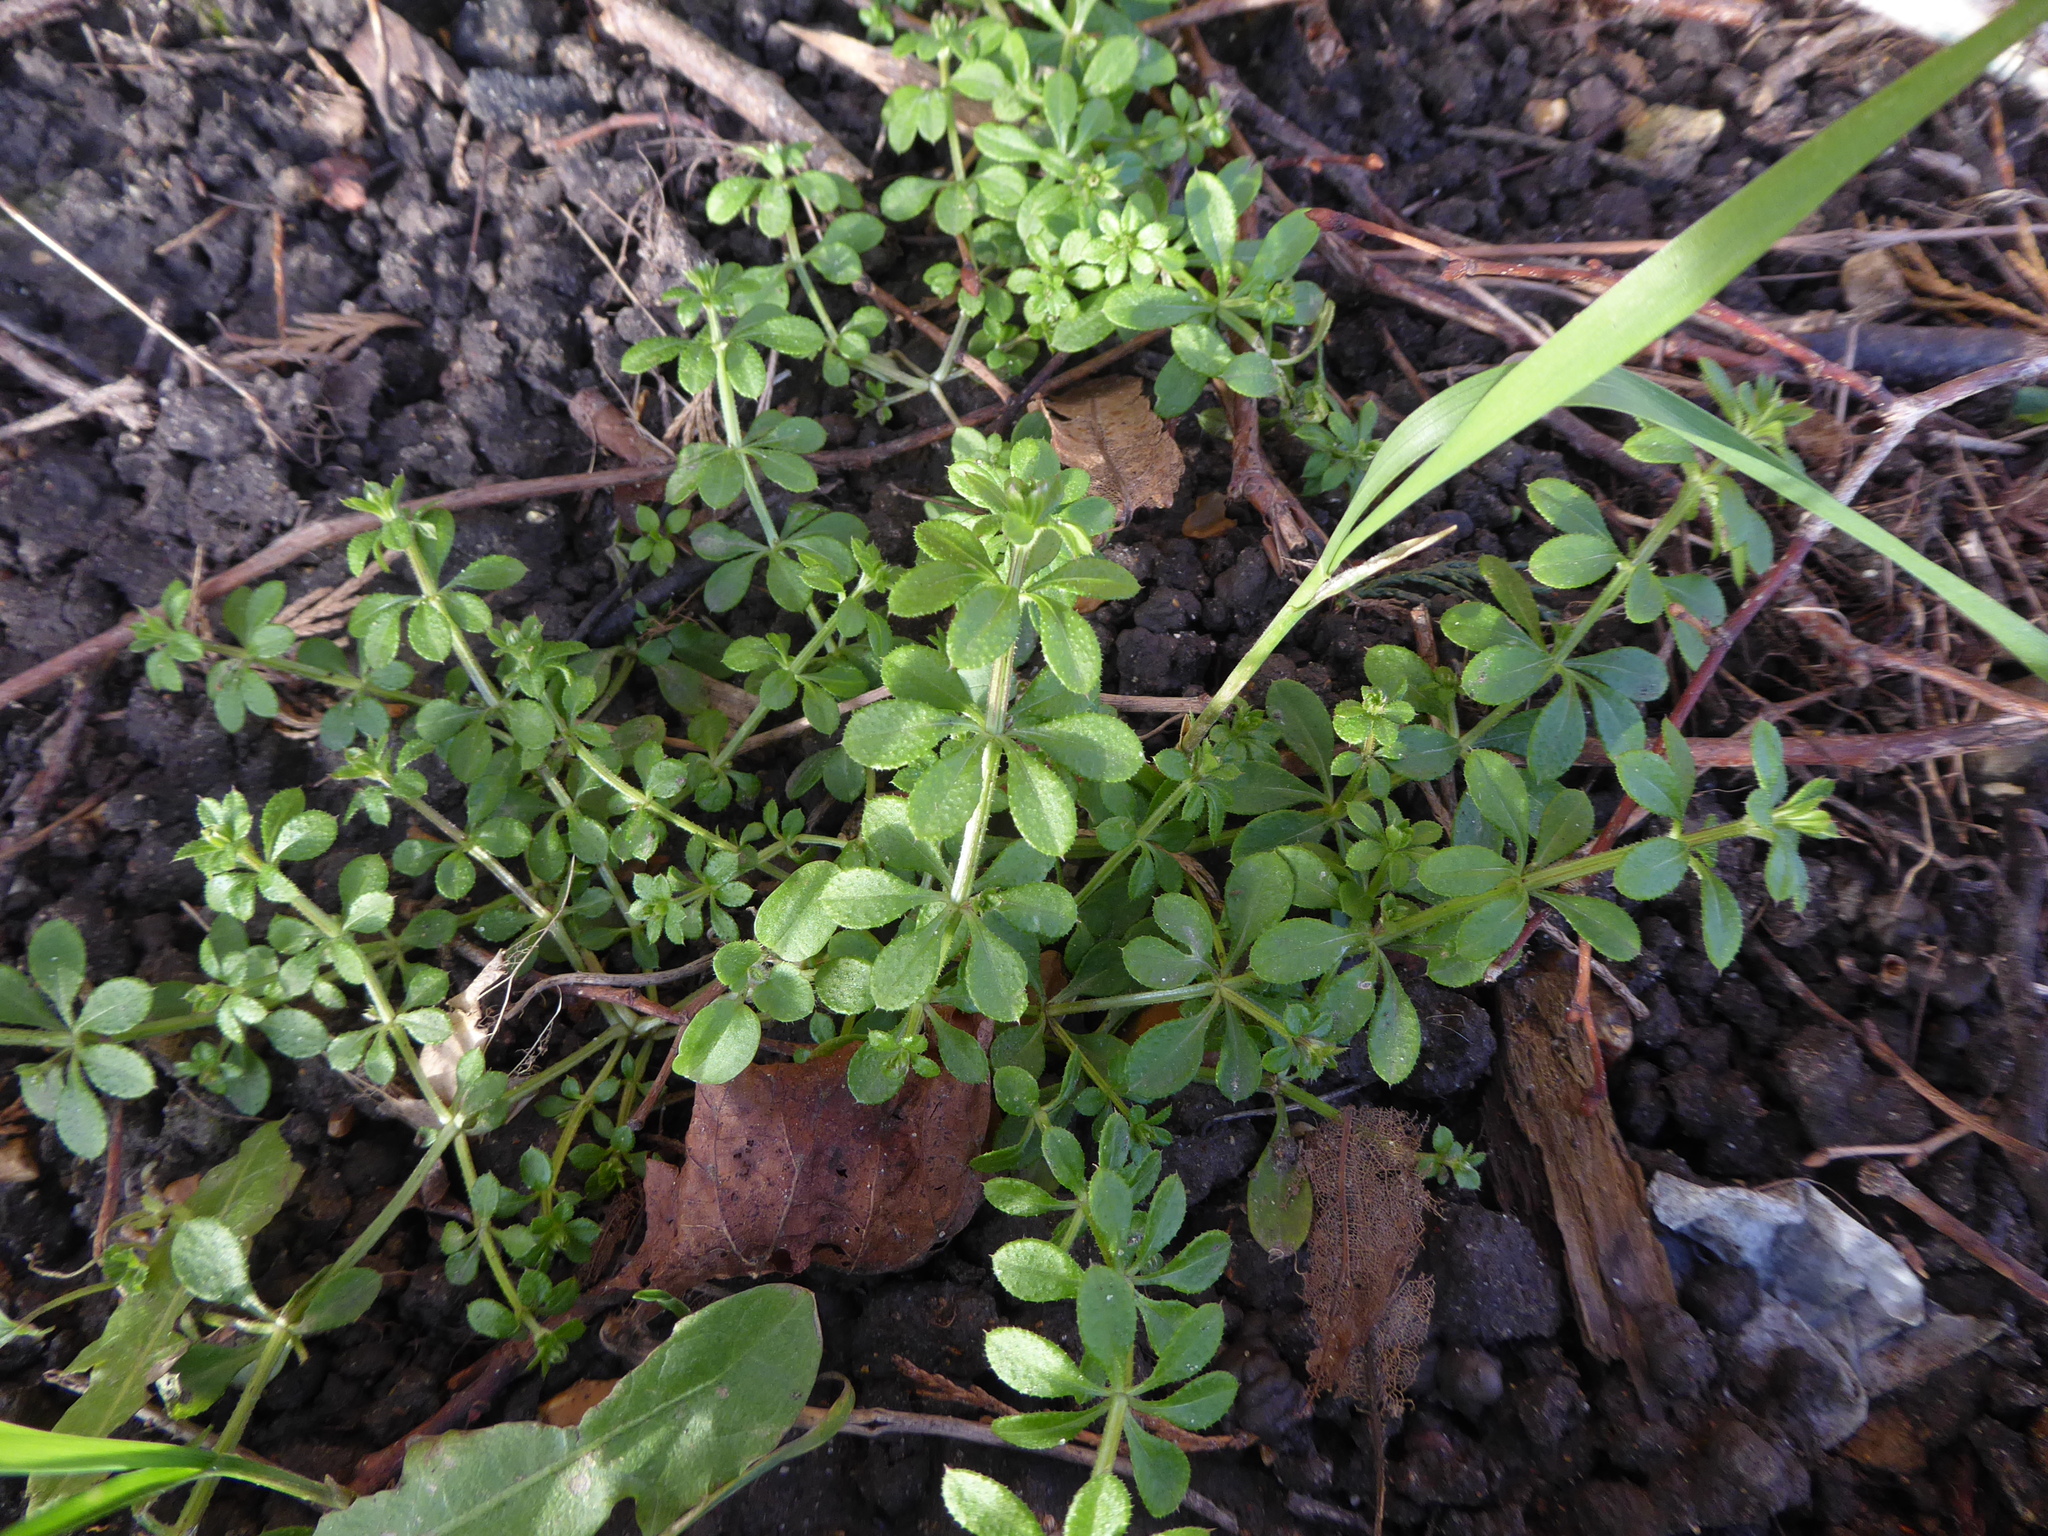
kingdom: Plantae
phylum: Tracheophyta
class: Magnoliopsida
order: Gentianales
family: Rubiaceae
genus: Galium
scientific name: Galium aparine
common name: Cleavers
